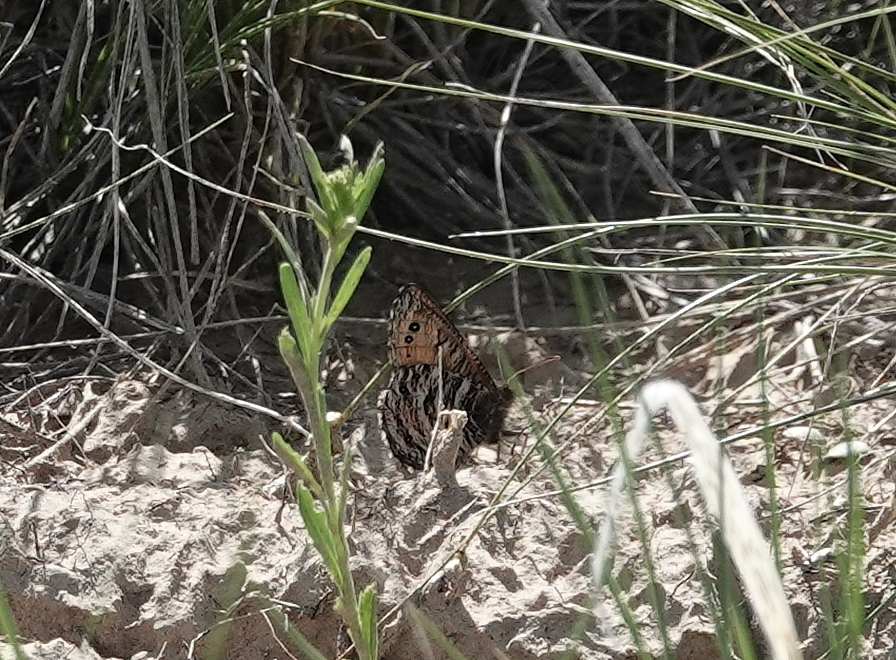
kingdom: Animalia
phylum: Arthropoda
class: Insecta
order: Lepidoptera
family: Nymphalidae
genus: Oeneis
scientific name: Oeneis uhleri
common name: Uhler's arctic
